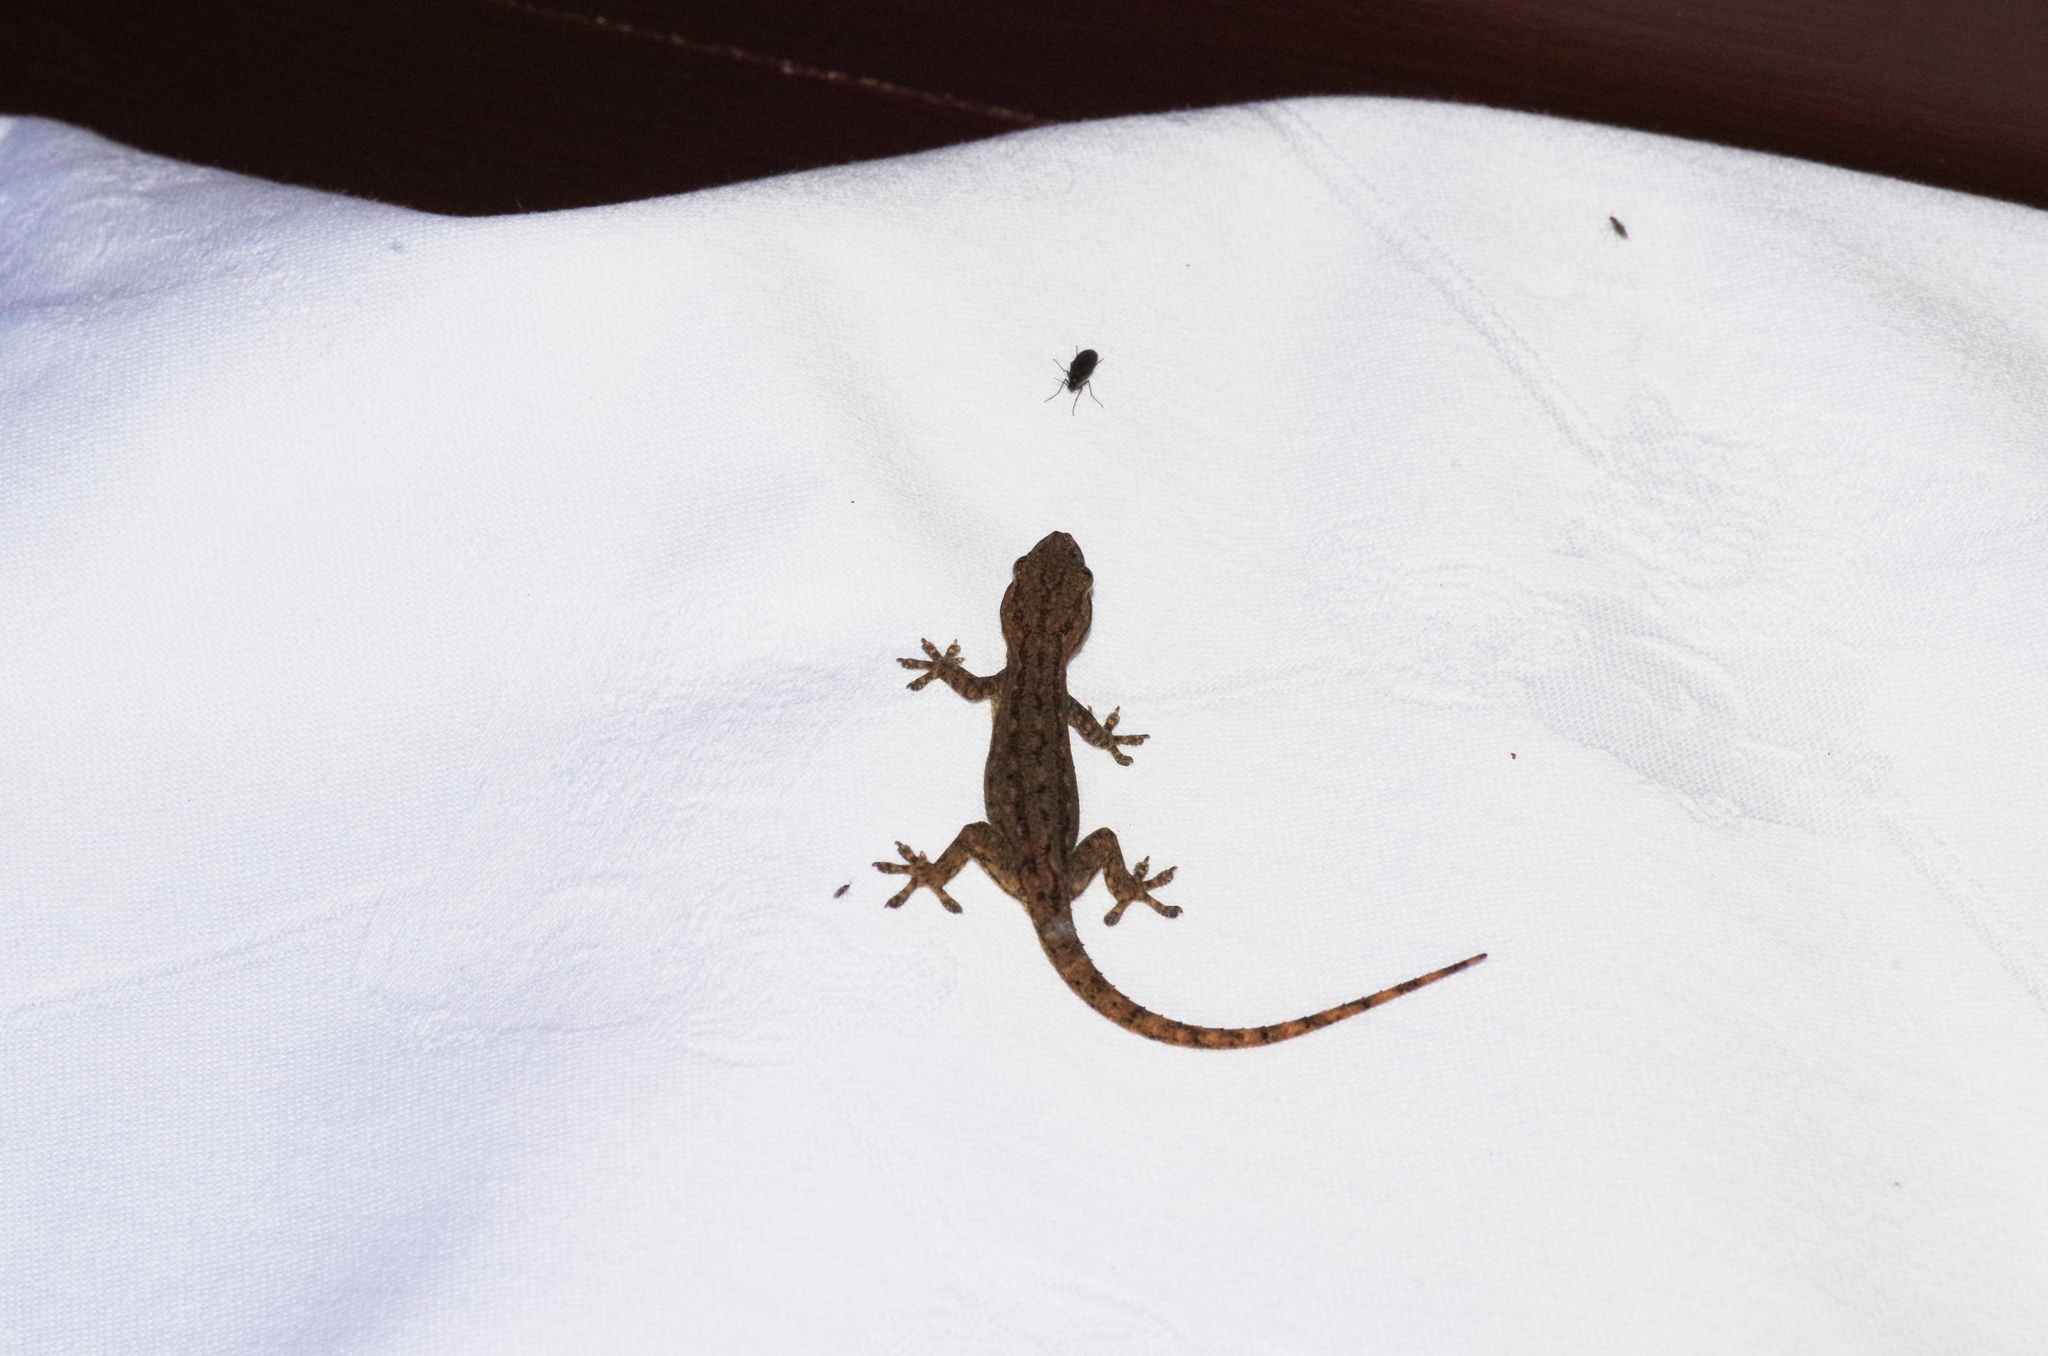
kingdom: Animalia
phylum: Chordata
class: Squamata
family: Gekkonidae
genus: Hemidactylus
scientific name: Hemidactylus frenatus
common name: Common house gecko
